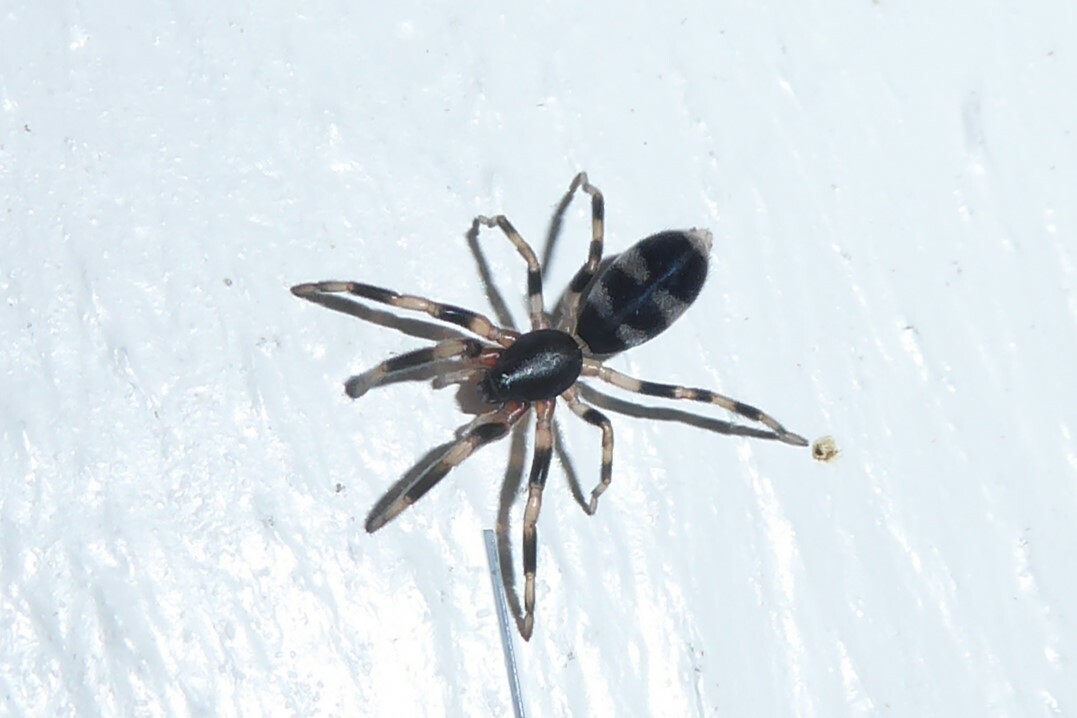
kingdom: Animalia
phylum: Arthropoda
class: Arachnida
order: Araneae
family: Lamponidae
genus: Lampona
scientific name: Lampona cylindrata
